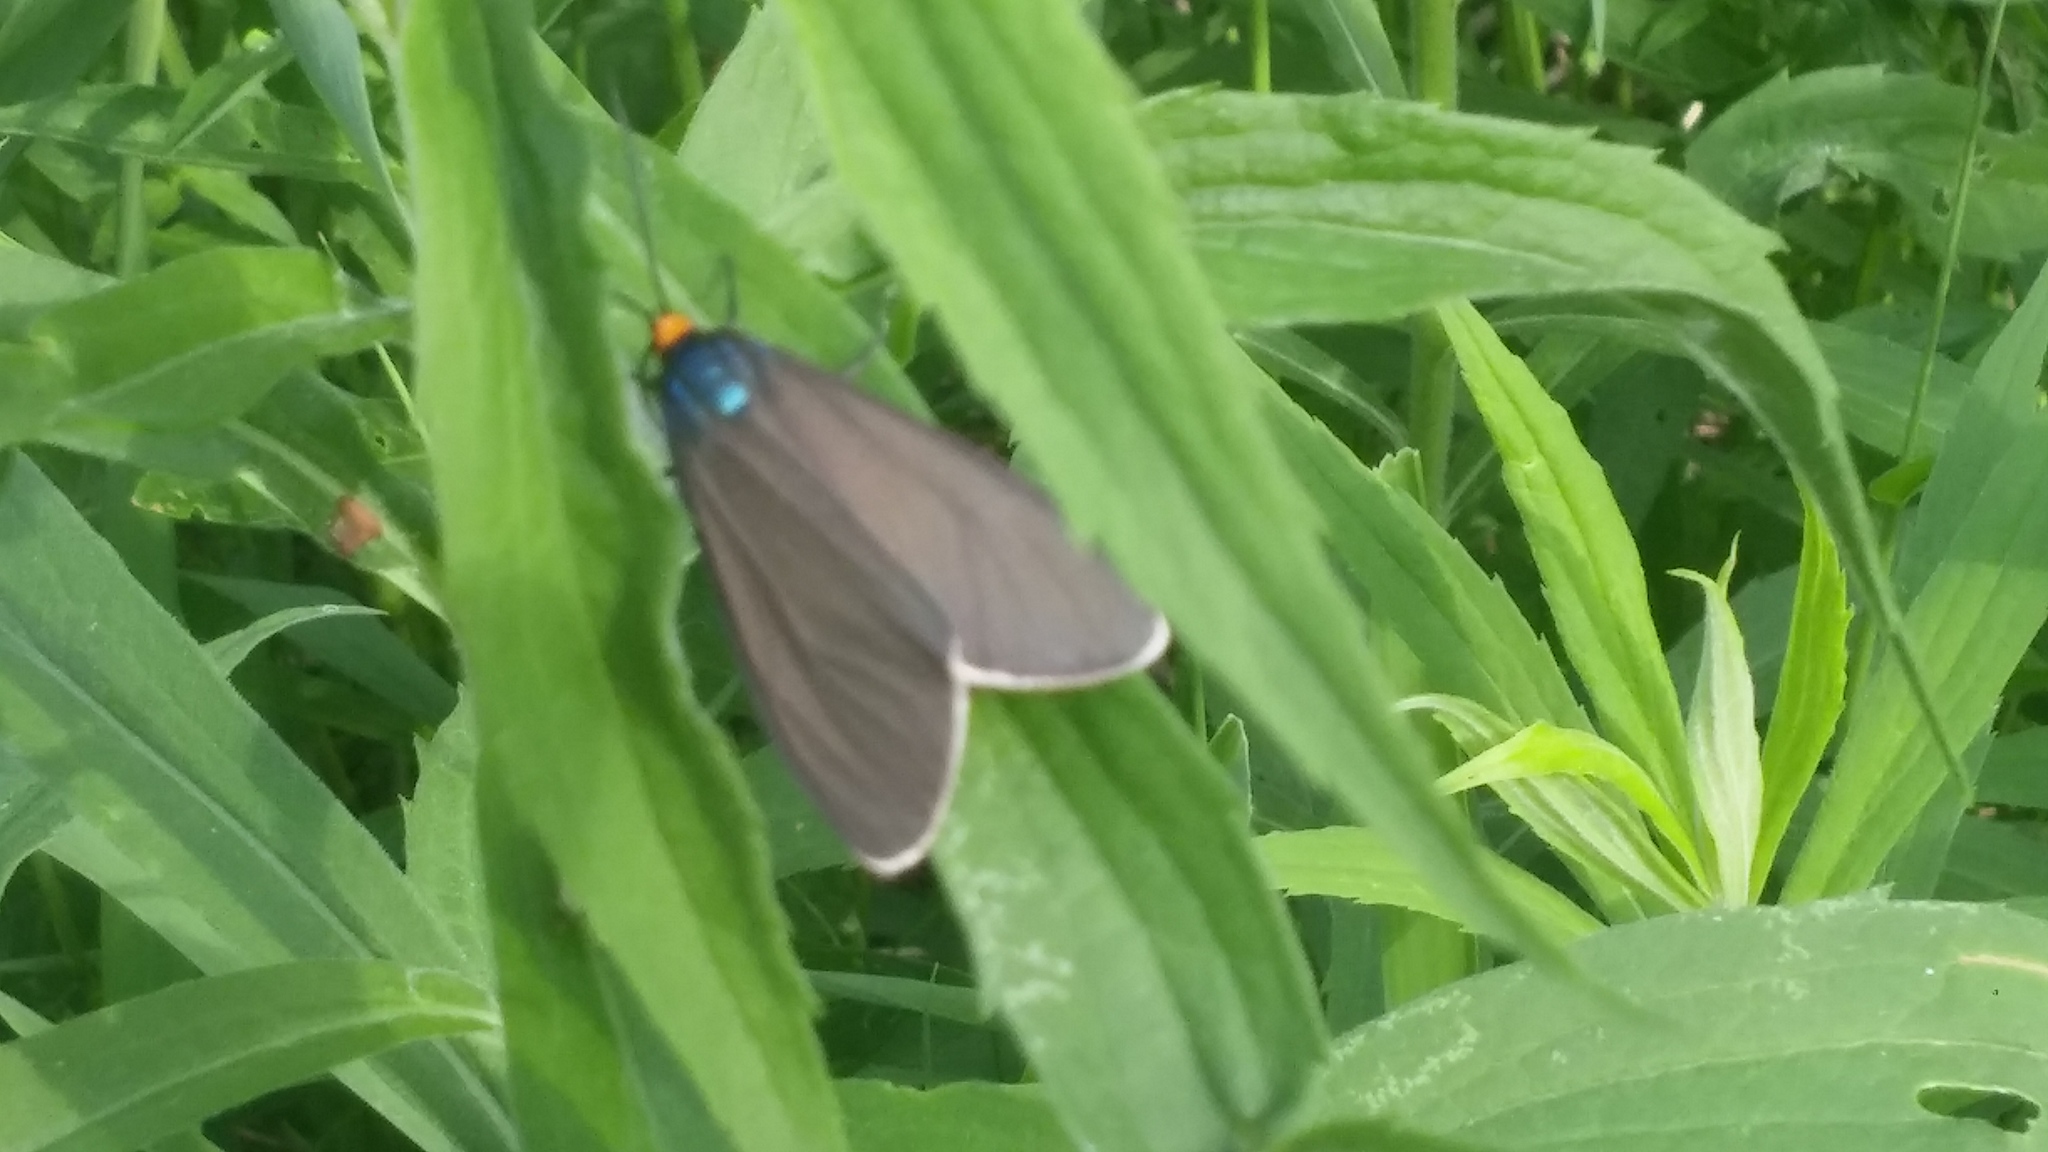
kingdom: Animalia
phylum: Arthropoda
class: Insecta
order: Lepidoptera
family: Erebidae
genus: Ctenucha
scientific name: Ctenucha virginica
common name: Virginia ctenucha moth
